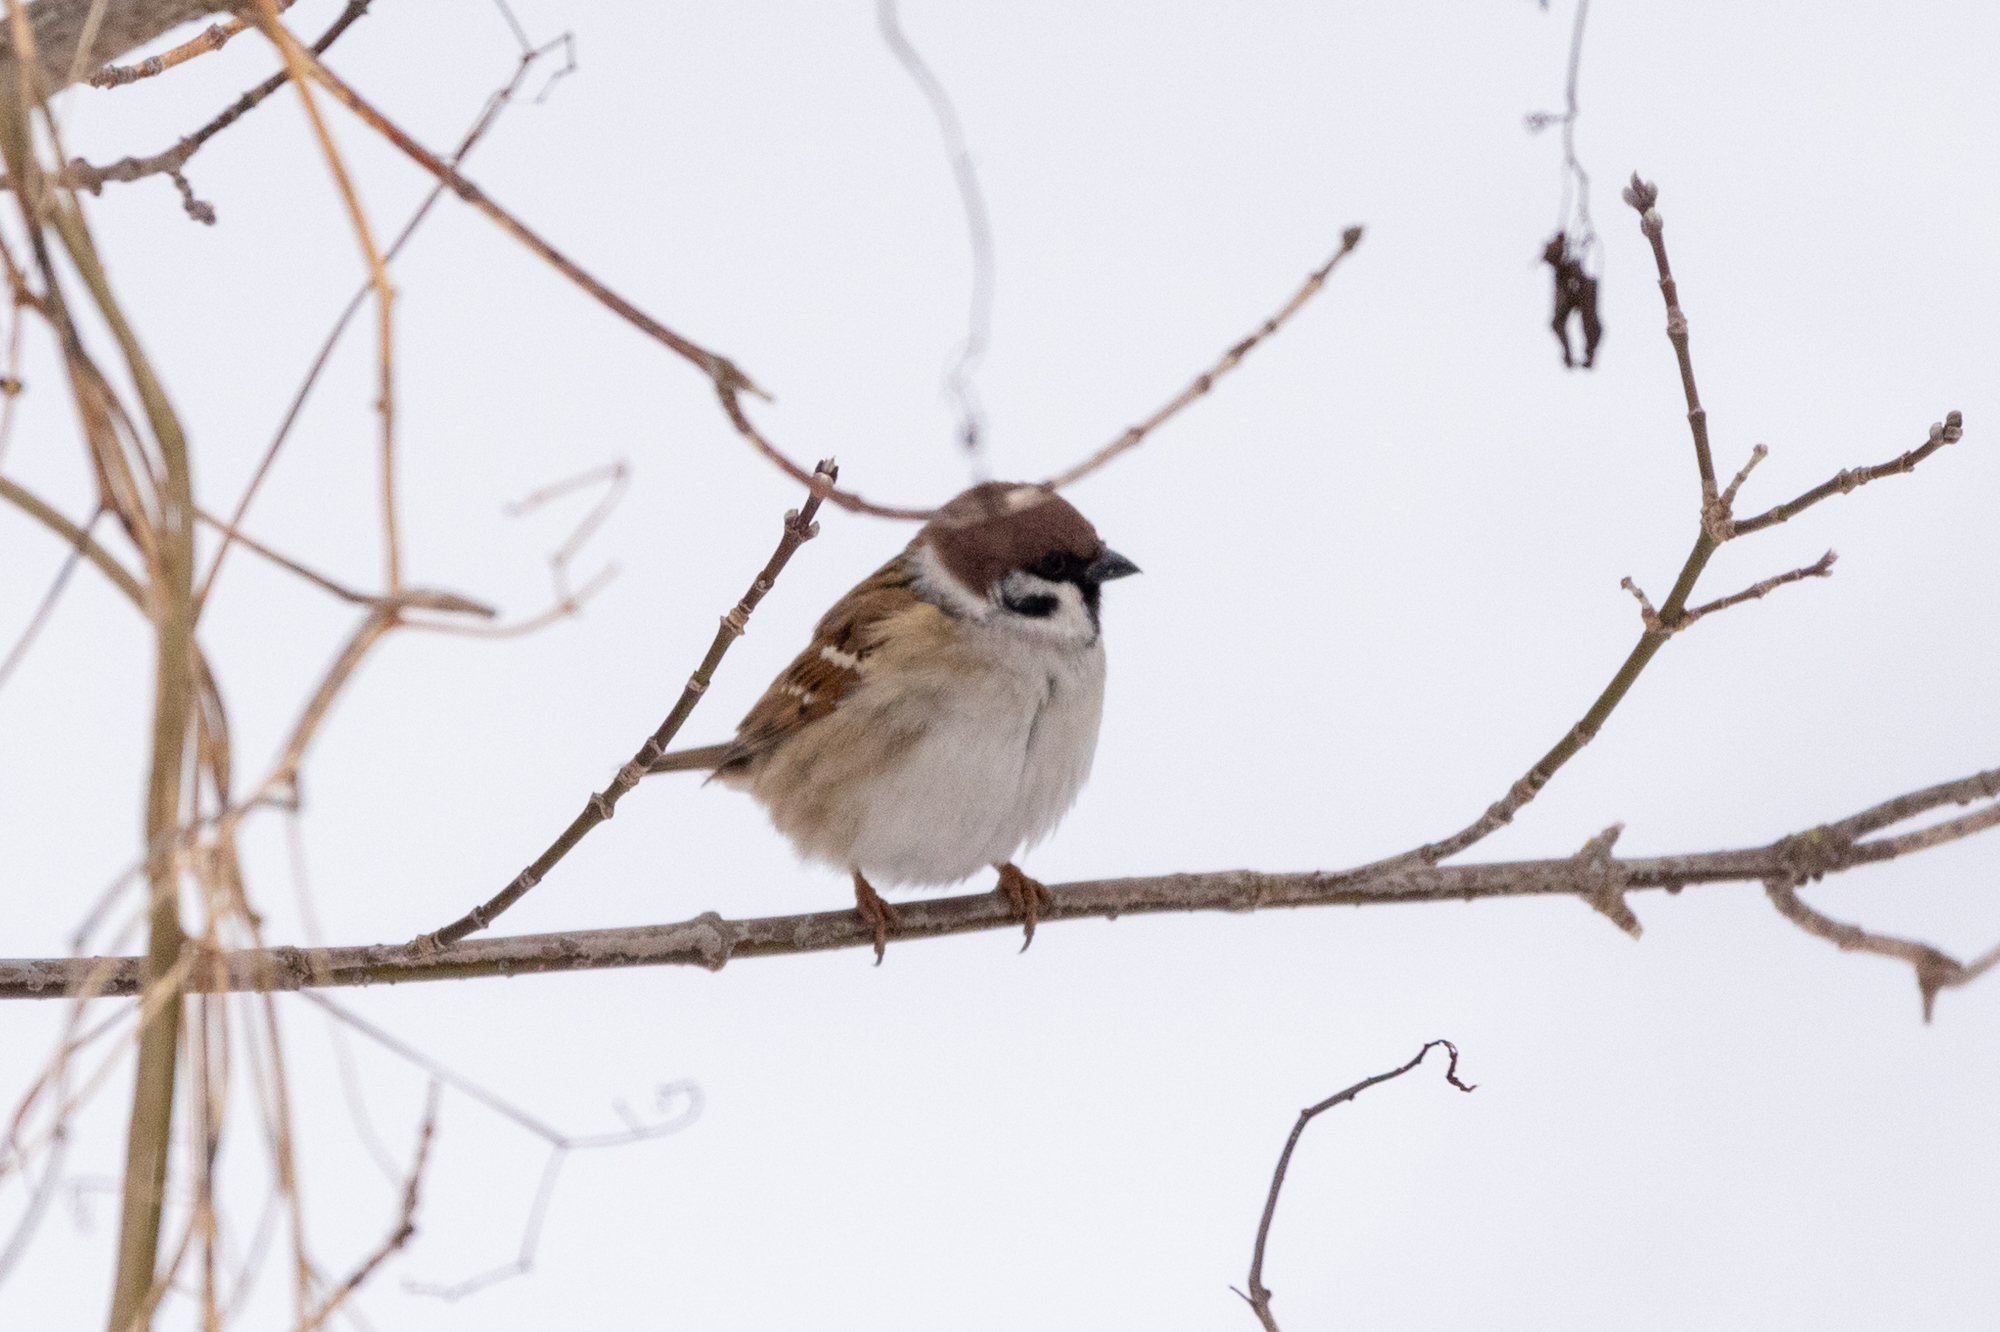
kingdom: Animalia
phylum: Chordata
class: Aves
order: Passeriformes
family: Passeridae
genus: Passer
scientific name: Passer montanus
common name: Eurasian tree sparrow
